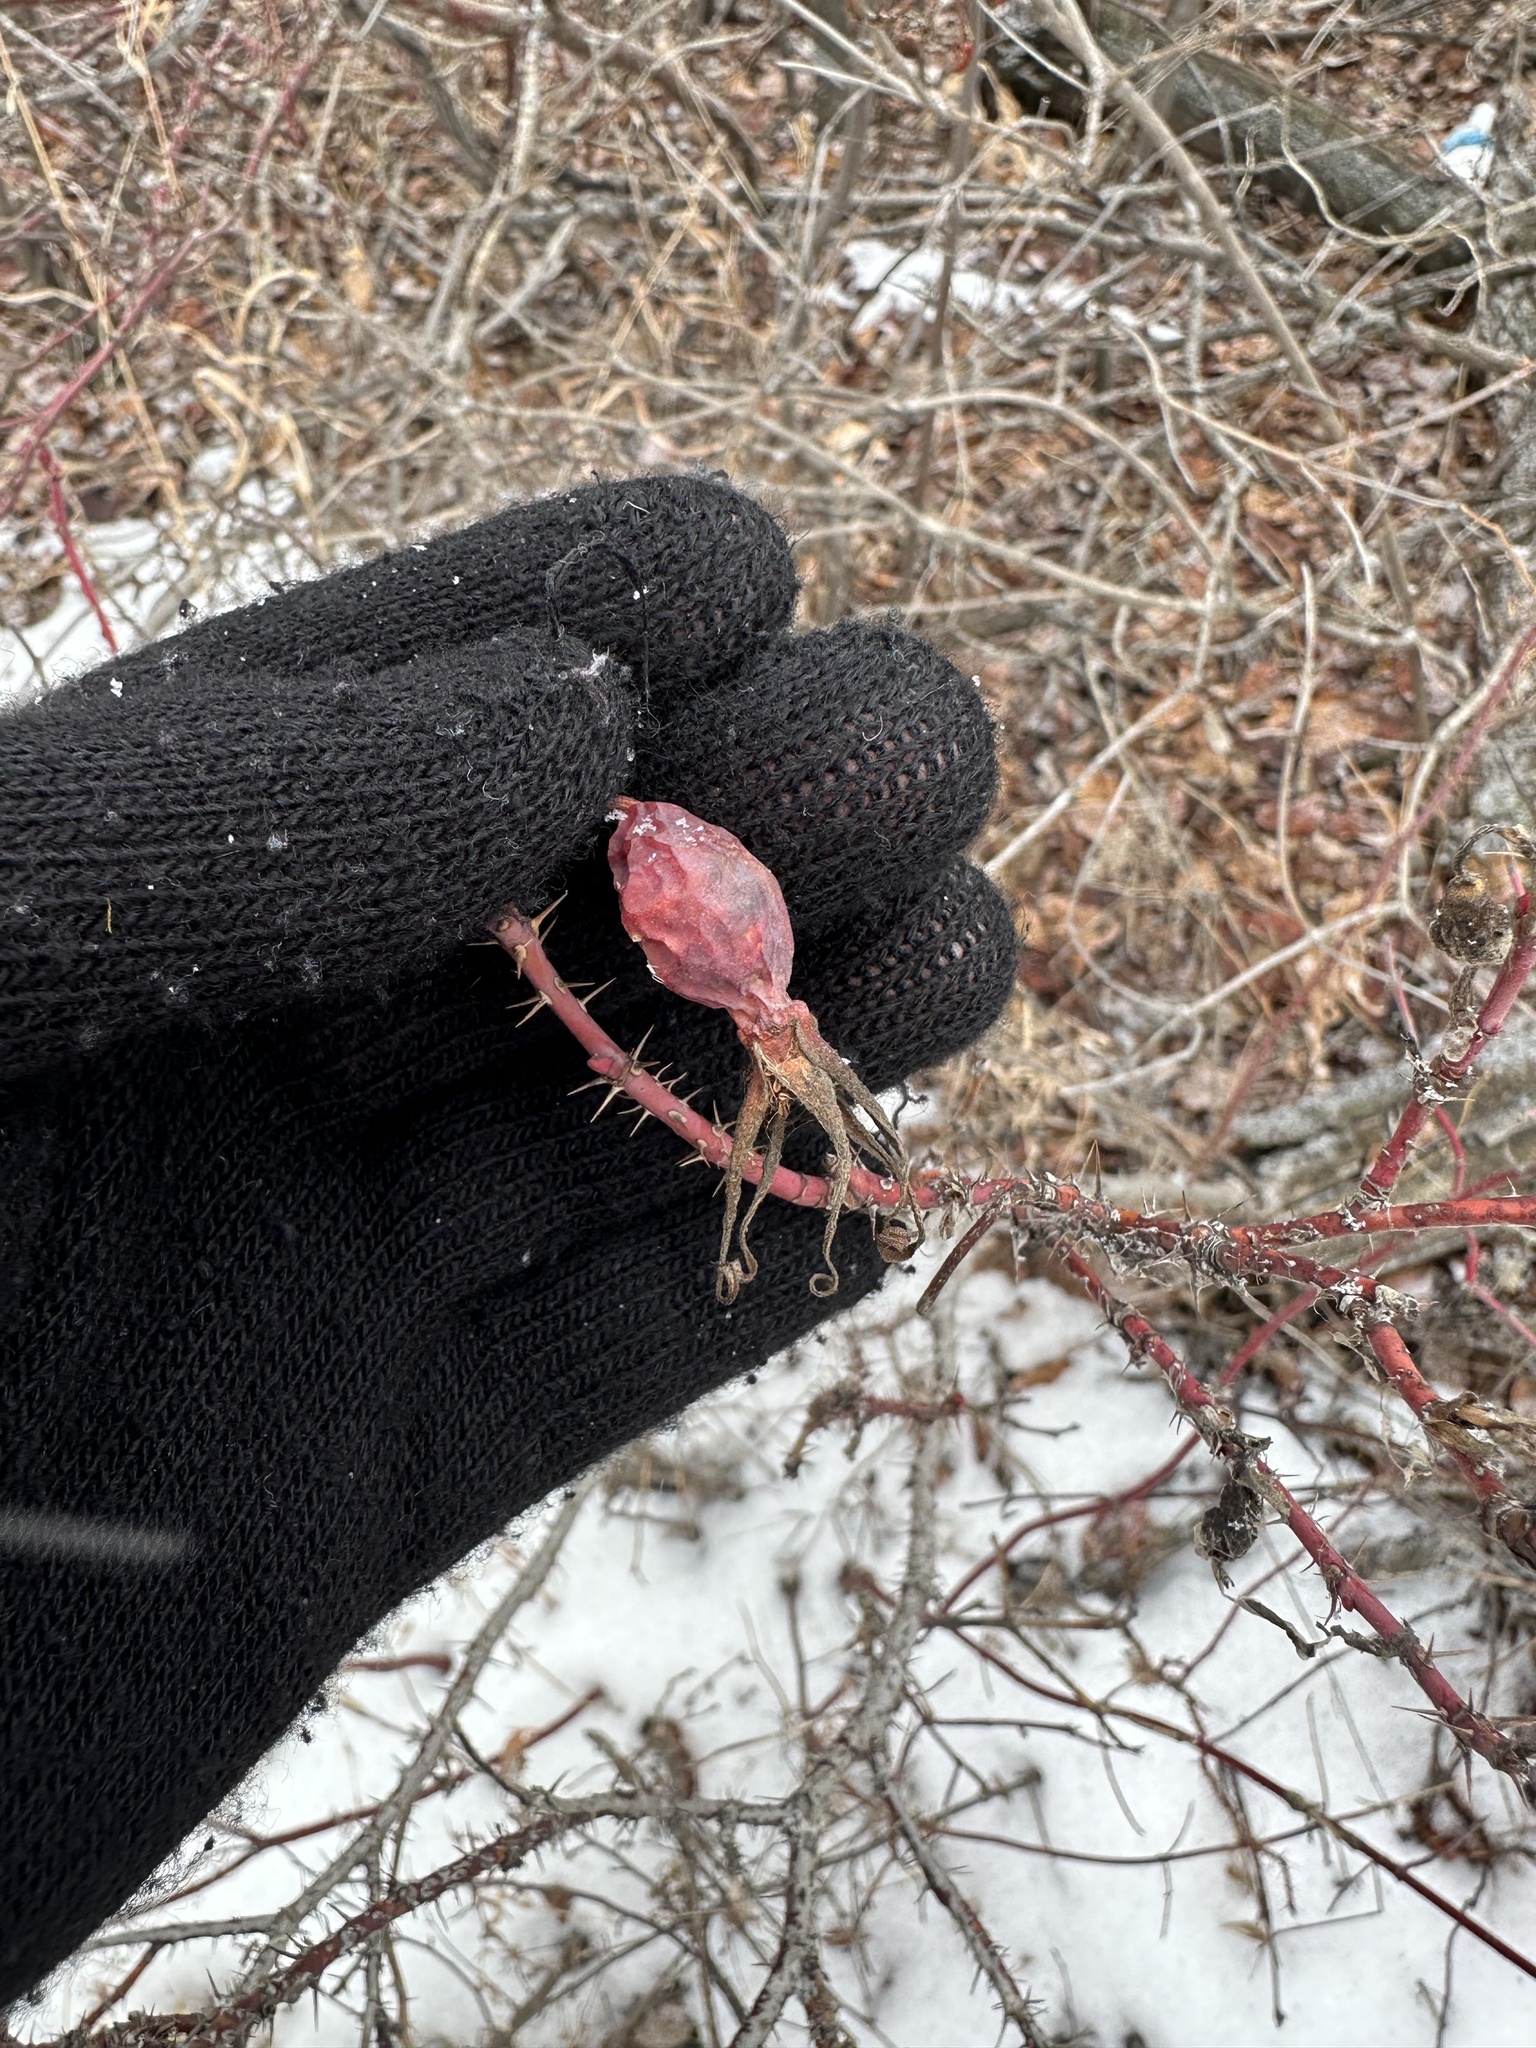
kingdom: Plantae
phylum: Tracheophyta
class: Magnoliopsida
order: Rosales
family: Rosaceae
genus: Rosa
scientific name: Rosa acicularis
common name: Prickly rose
